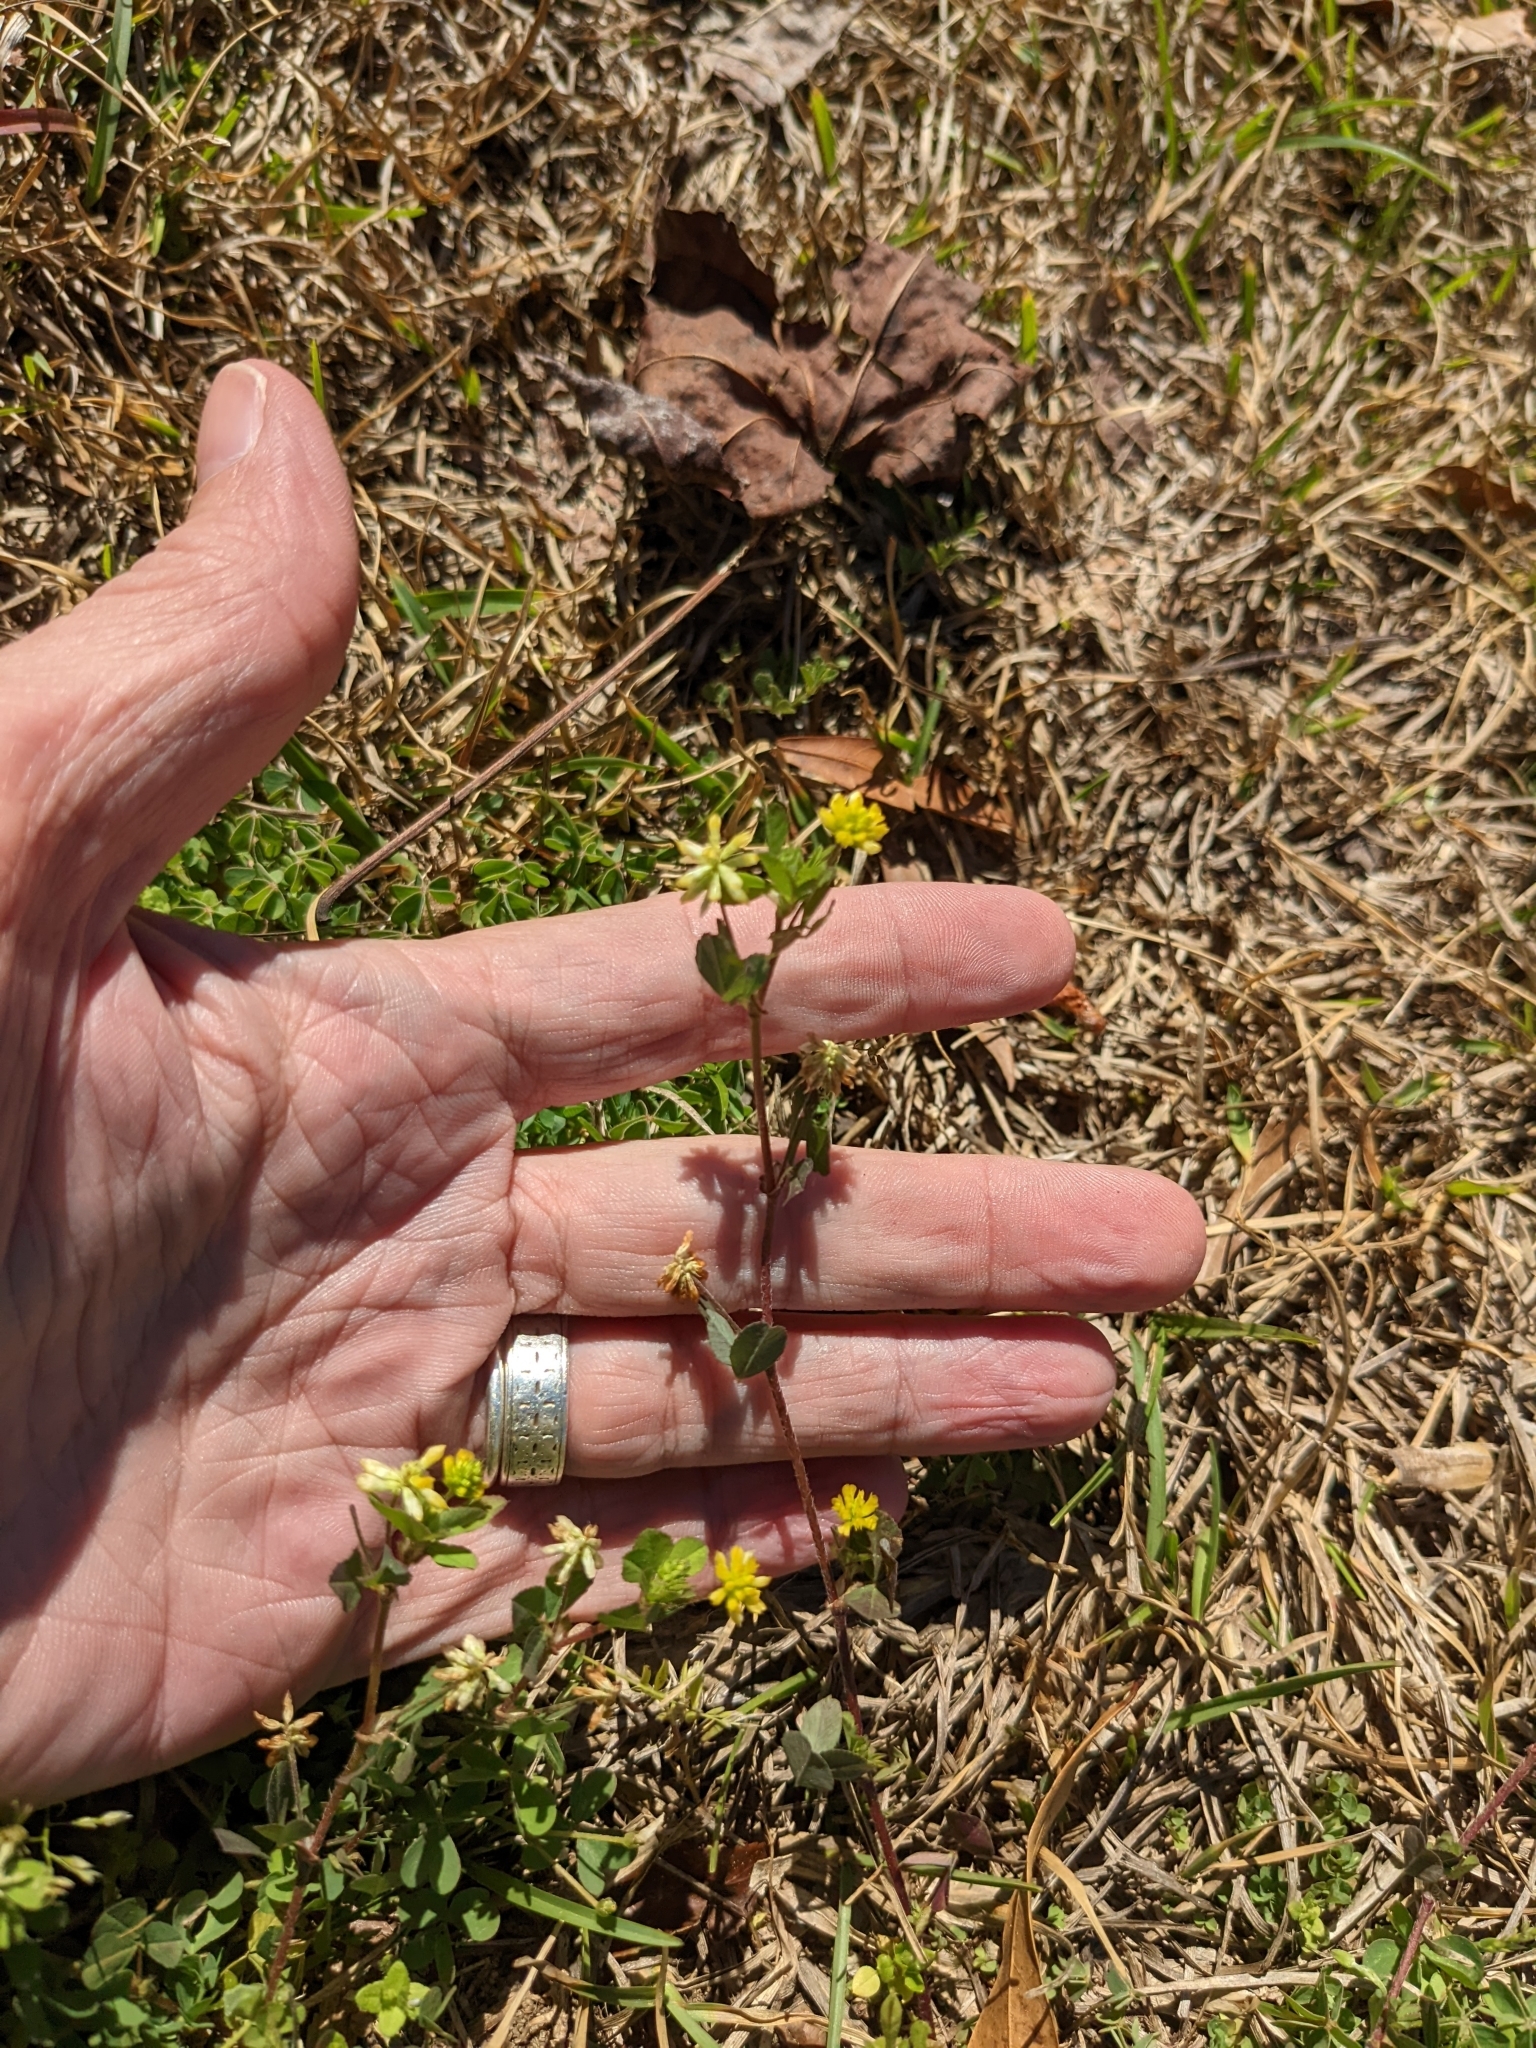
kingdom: Plantae
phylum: Tracheophyta
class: Magnoliopsida
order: Fabales
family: Fabaceae
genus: Trifolium
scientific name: Trifolium dubium
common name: Suckling clover
